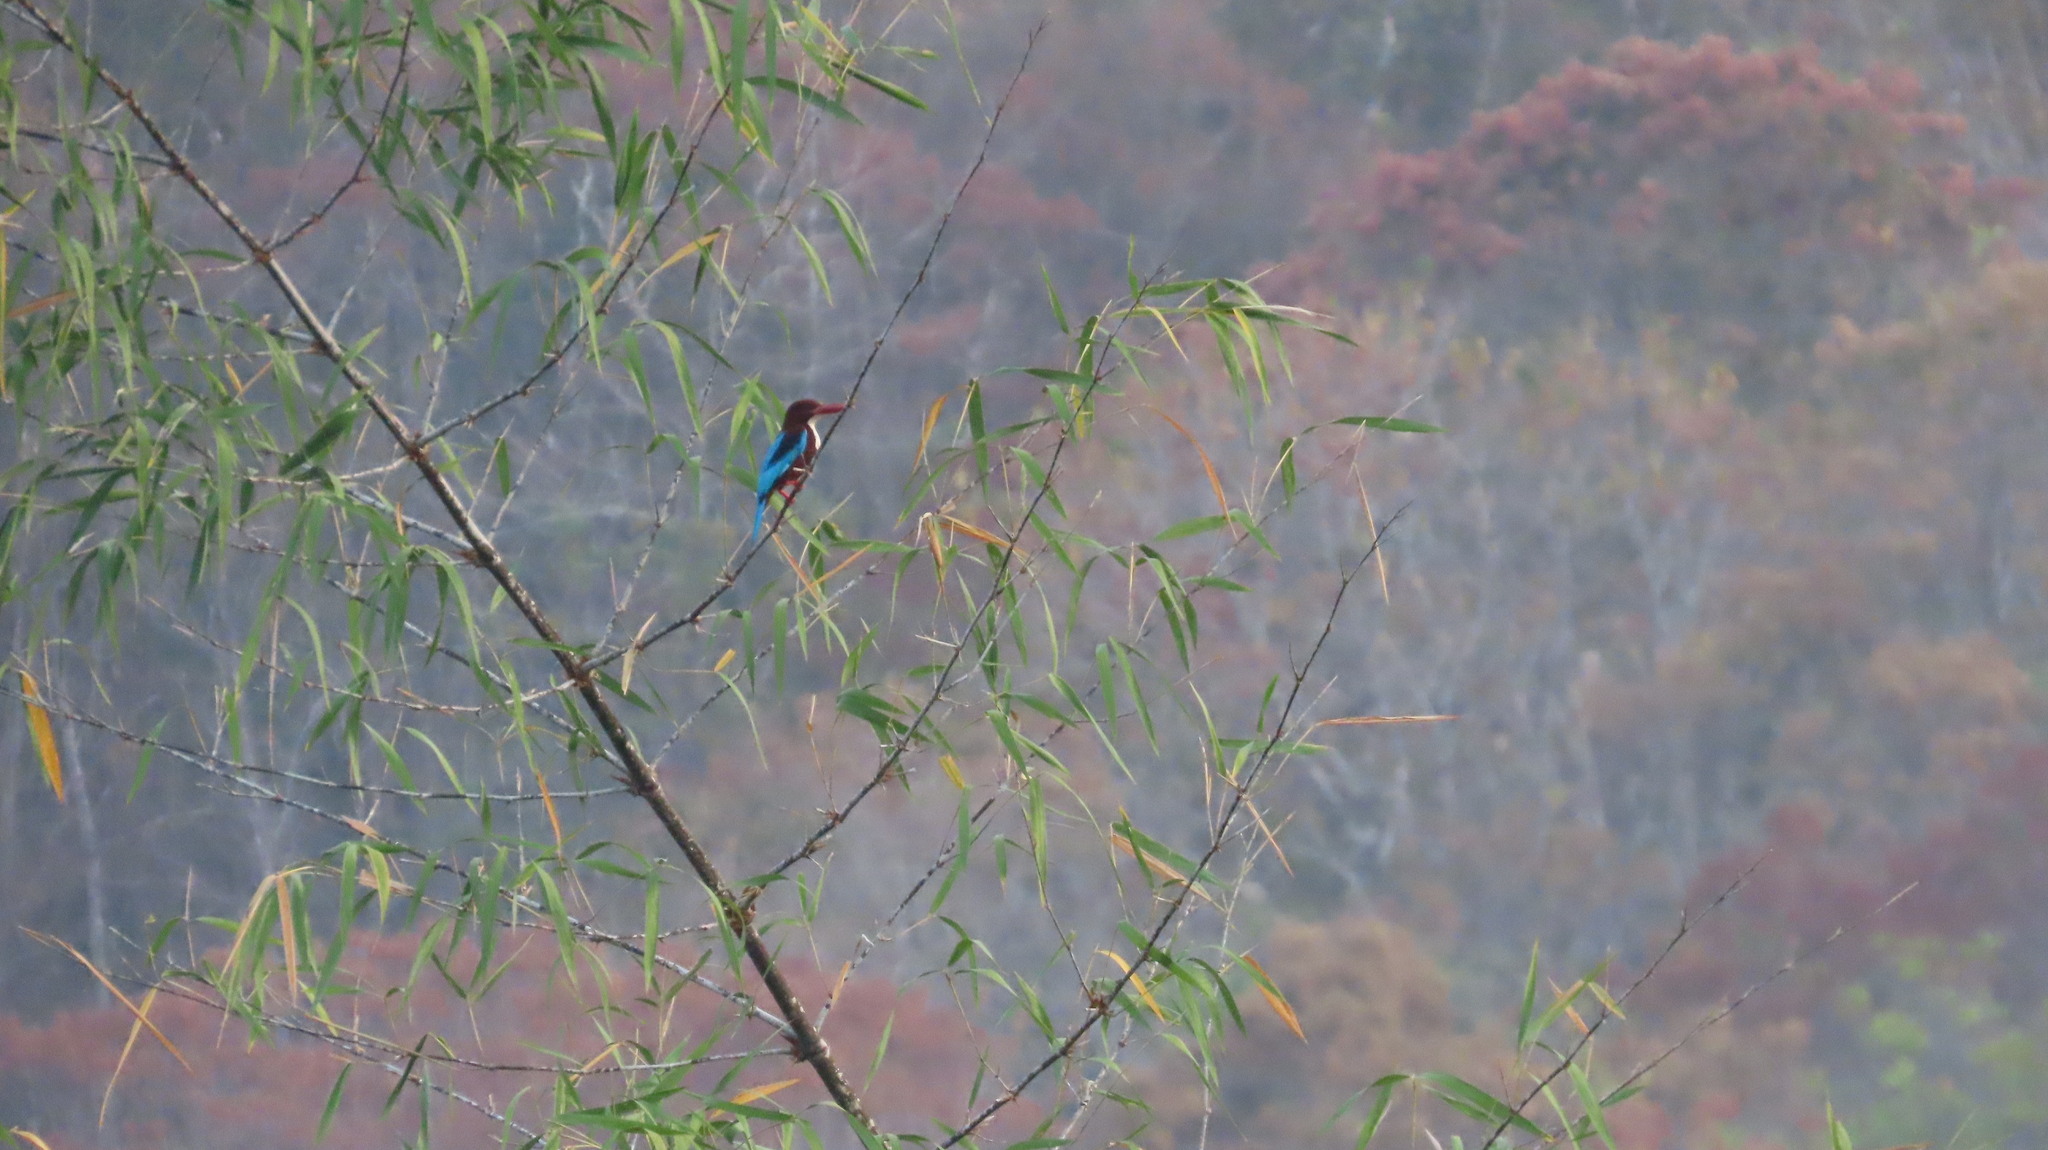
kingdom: Animalia
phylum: Chordata
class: Aves
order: Coraciiformes
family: Alcedinidae
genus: Halcyon
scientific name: Halcyon smyrnensis
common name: White-throated kingfisher
